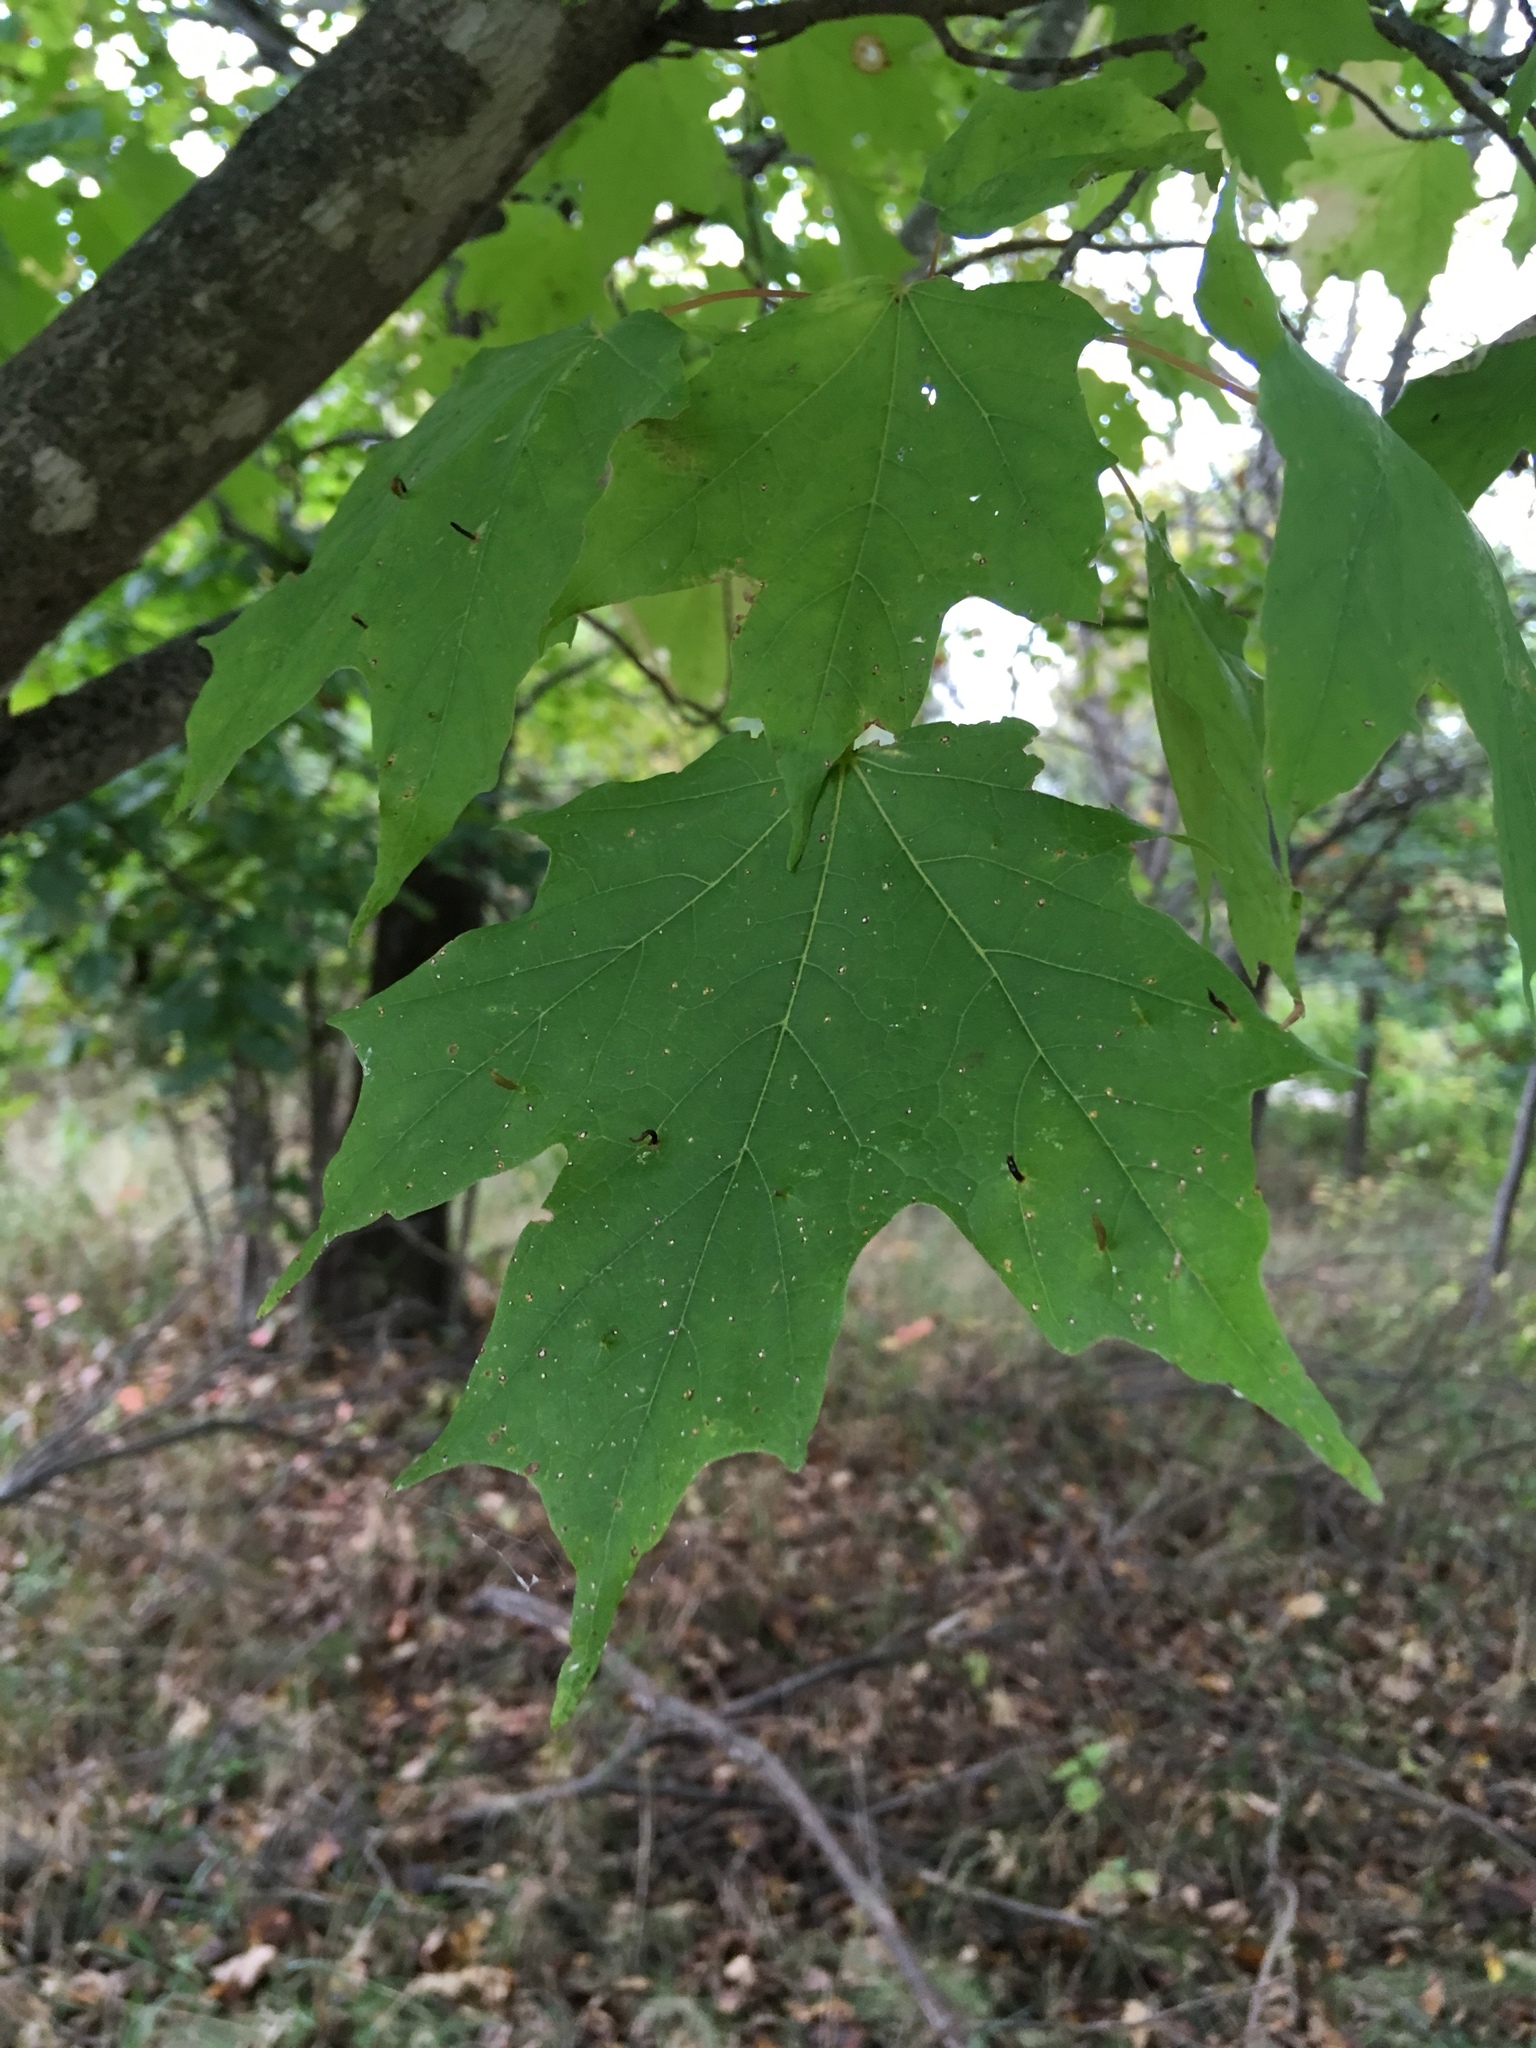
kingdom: Plantae
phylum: Tracheophyta
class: Magnoliopsida
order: Sapindales
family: Sapindaceae
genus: Acer
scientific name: Acer saccharum
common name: Sugar maple
